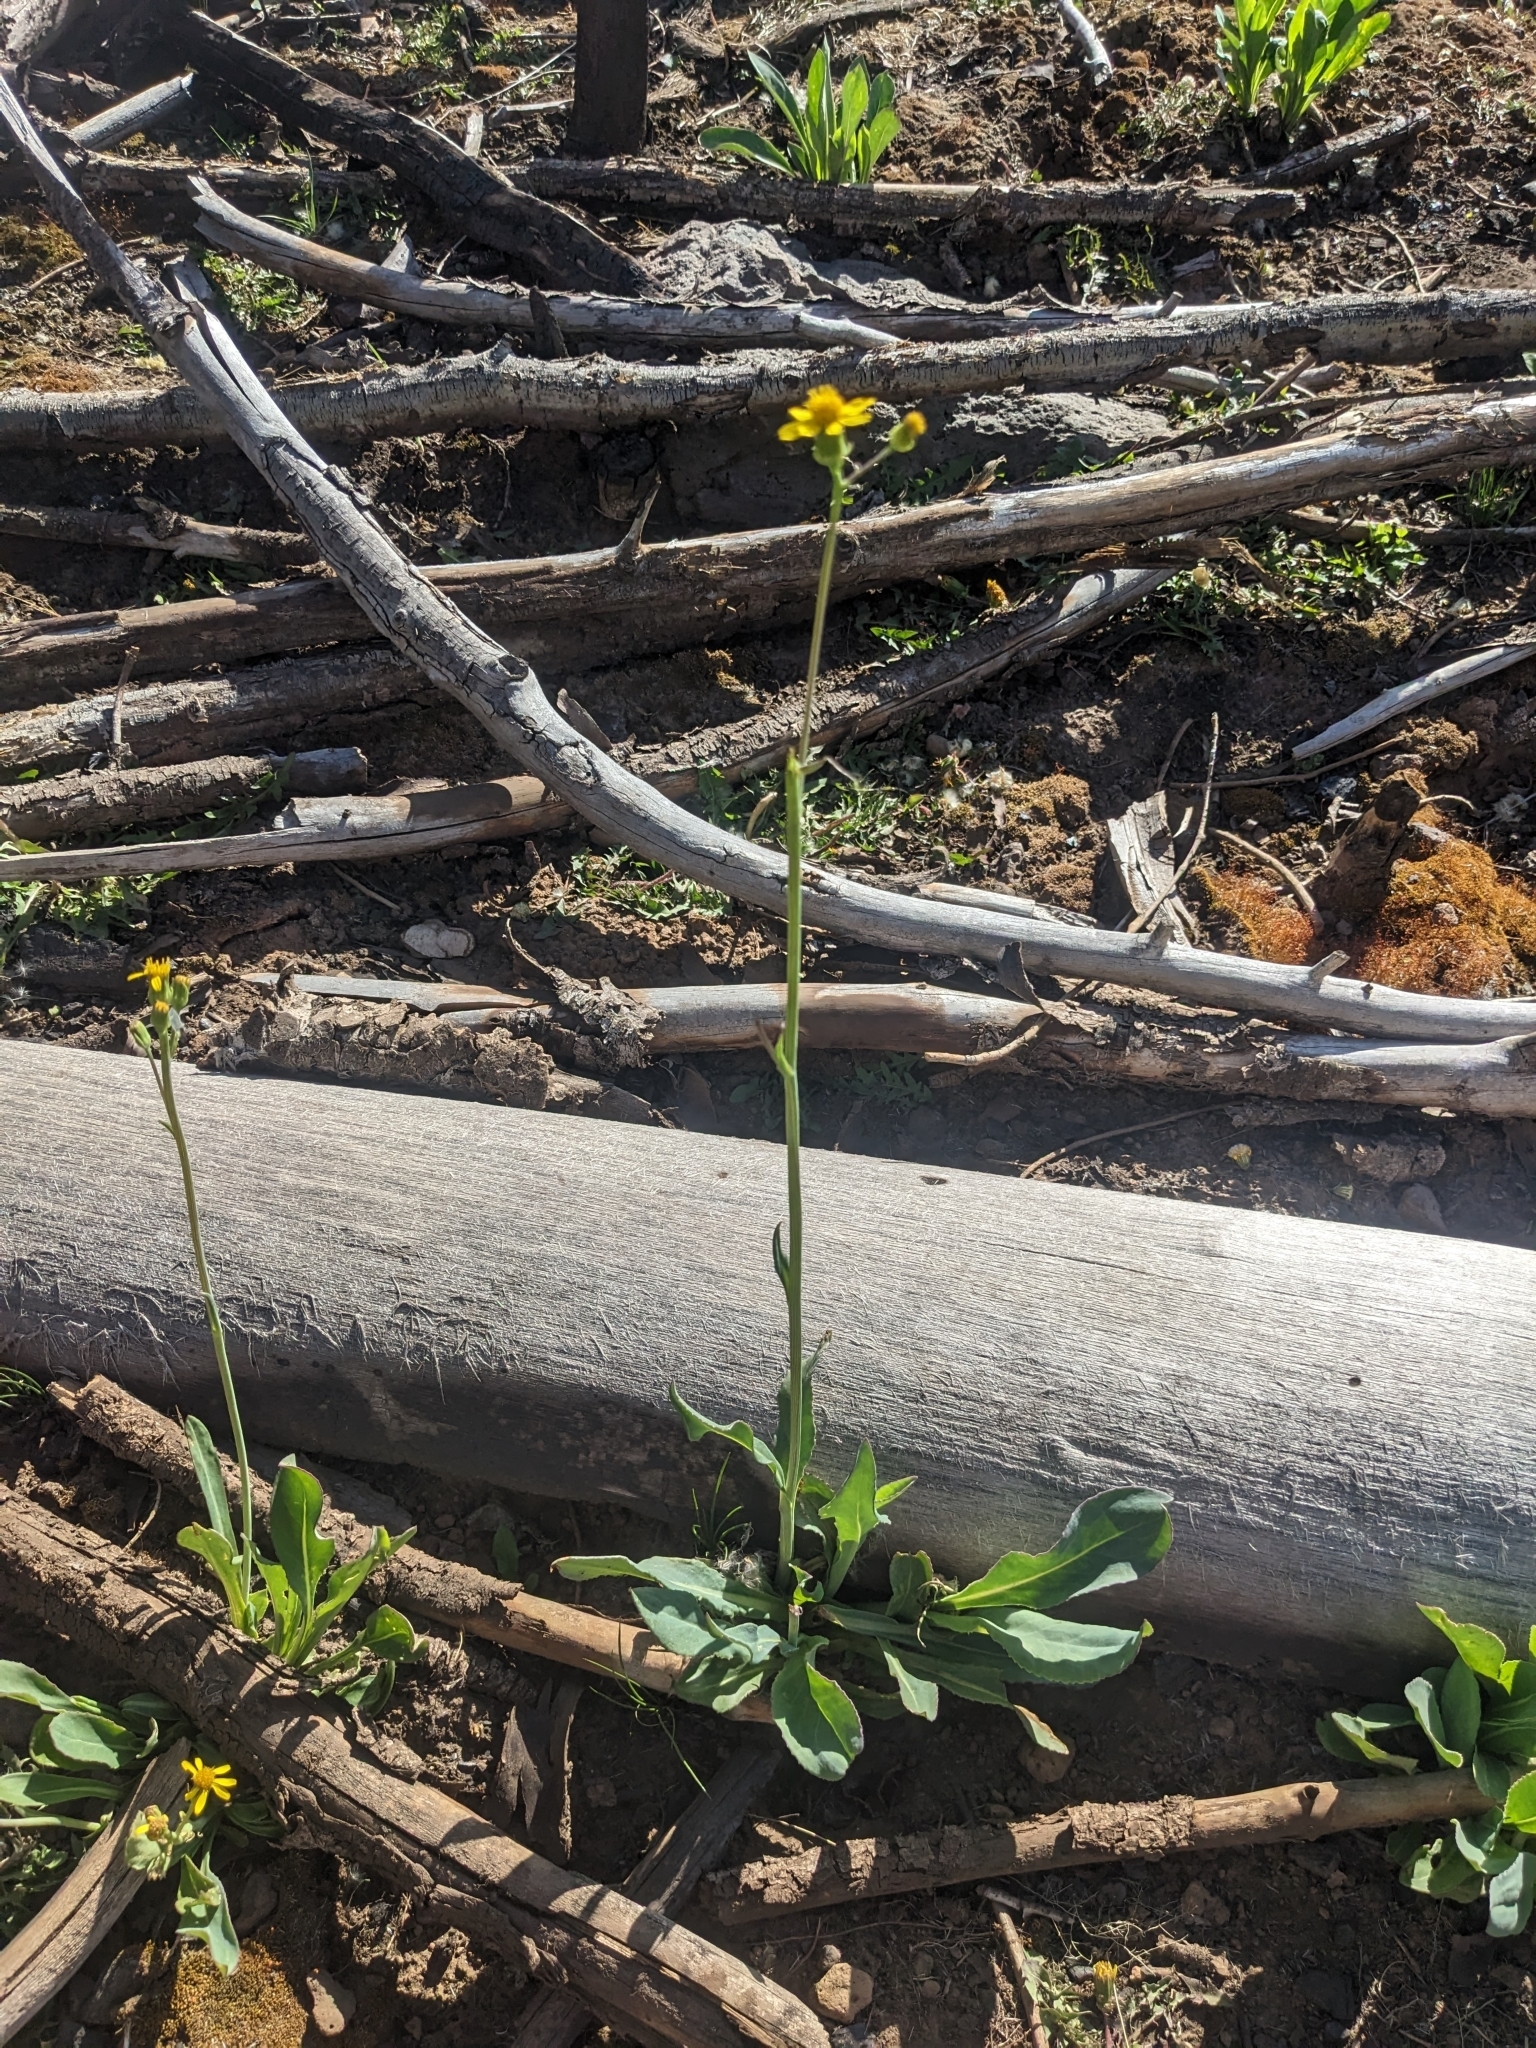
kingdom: Plantae
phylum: Tracheophyta
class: Magnoliopsida
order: Asterales
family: Asteraceae
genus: Senecio
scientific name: Senecio wootonii
